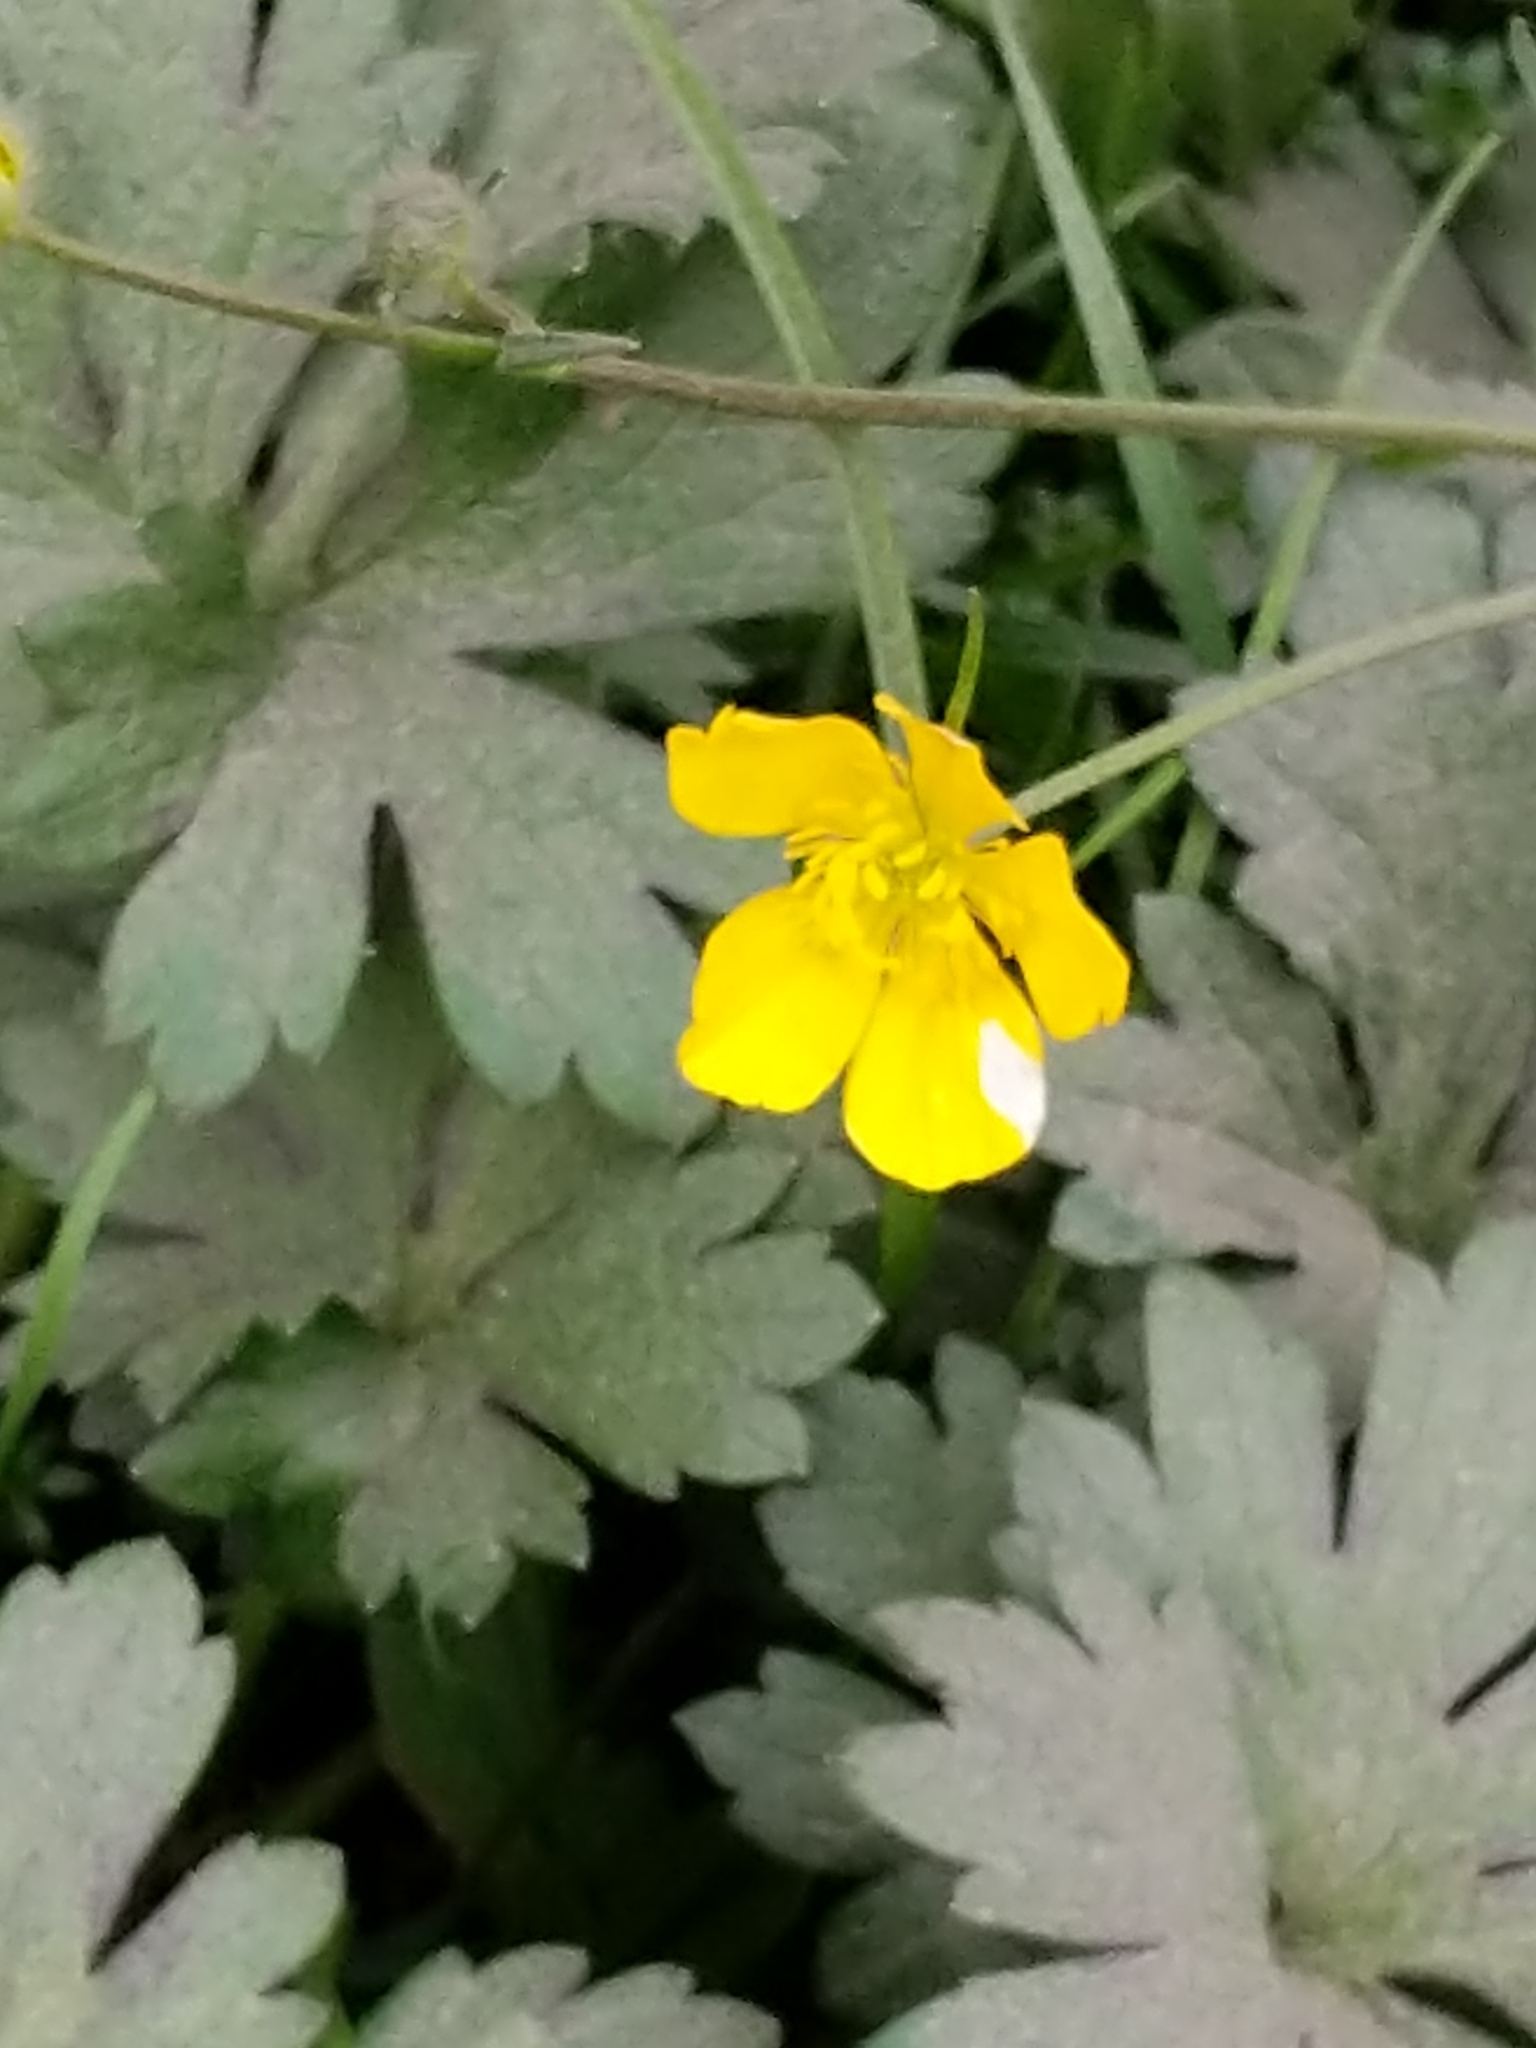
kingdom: Plantae
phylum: Tracheophyta
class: Magnoliopsida
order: Ranunculales
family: Ranunculaceae
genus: Ranunculus
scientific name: Ranunculus repens
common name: Creeping buttercup
